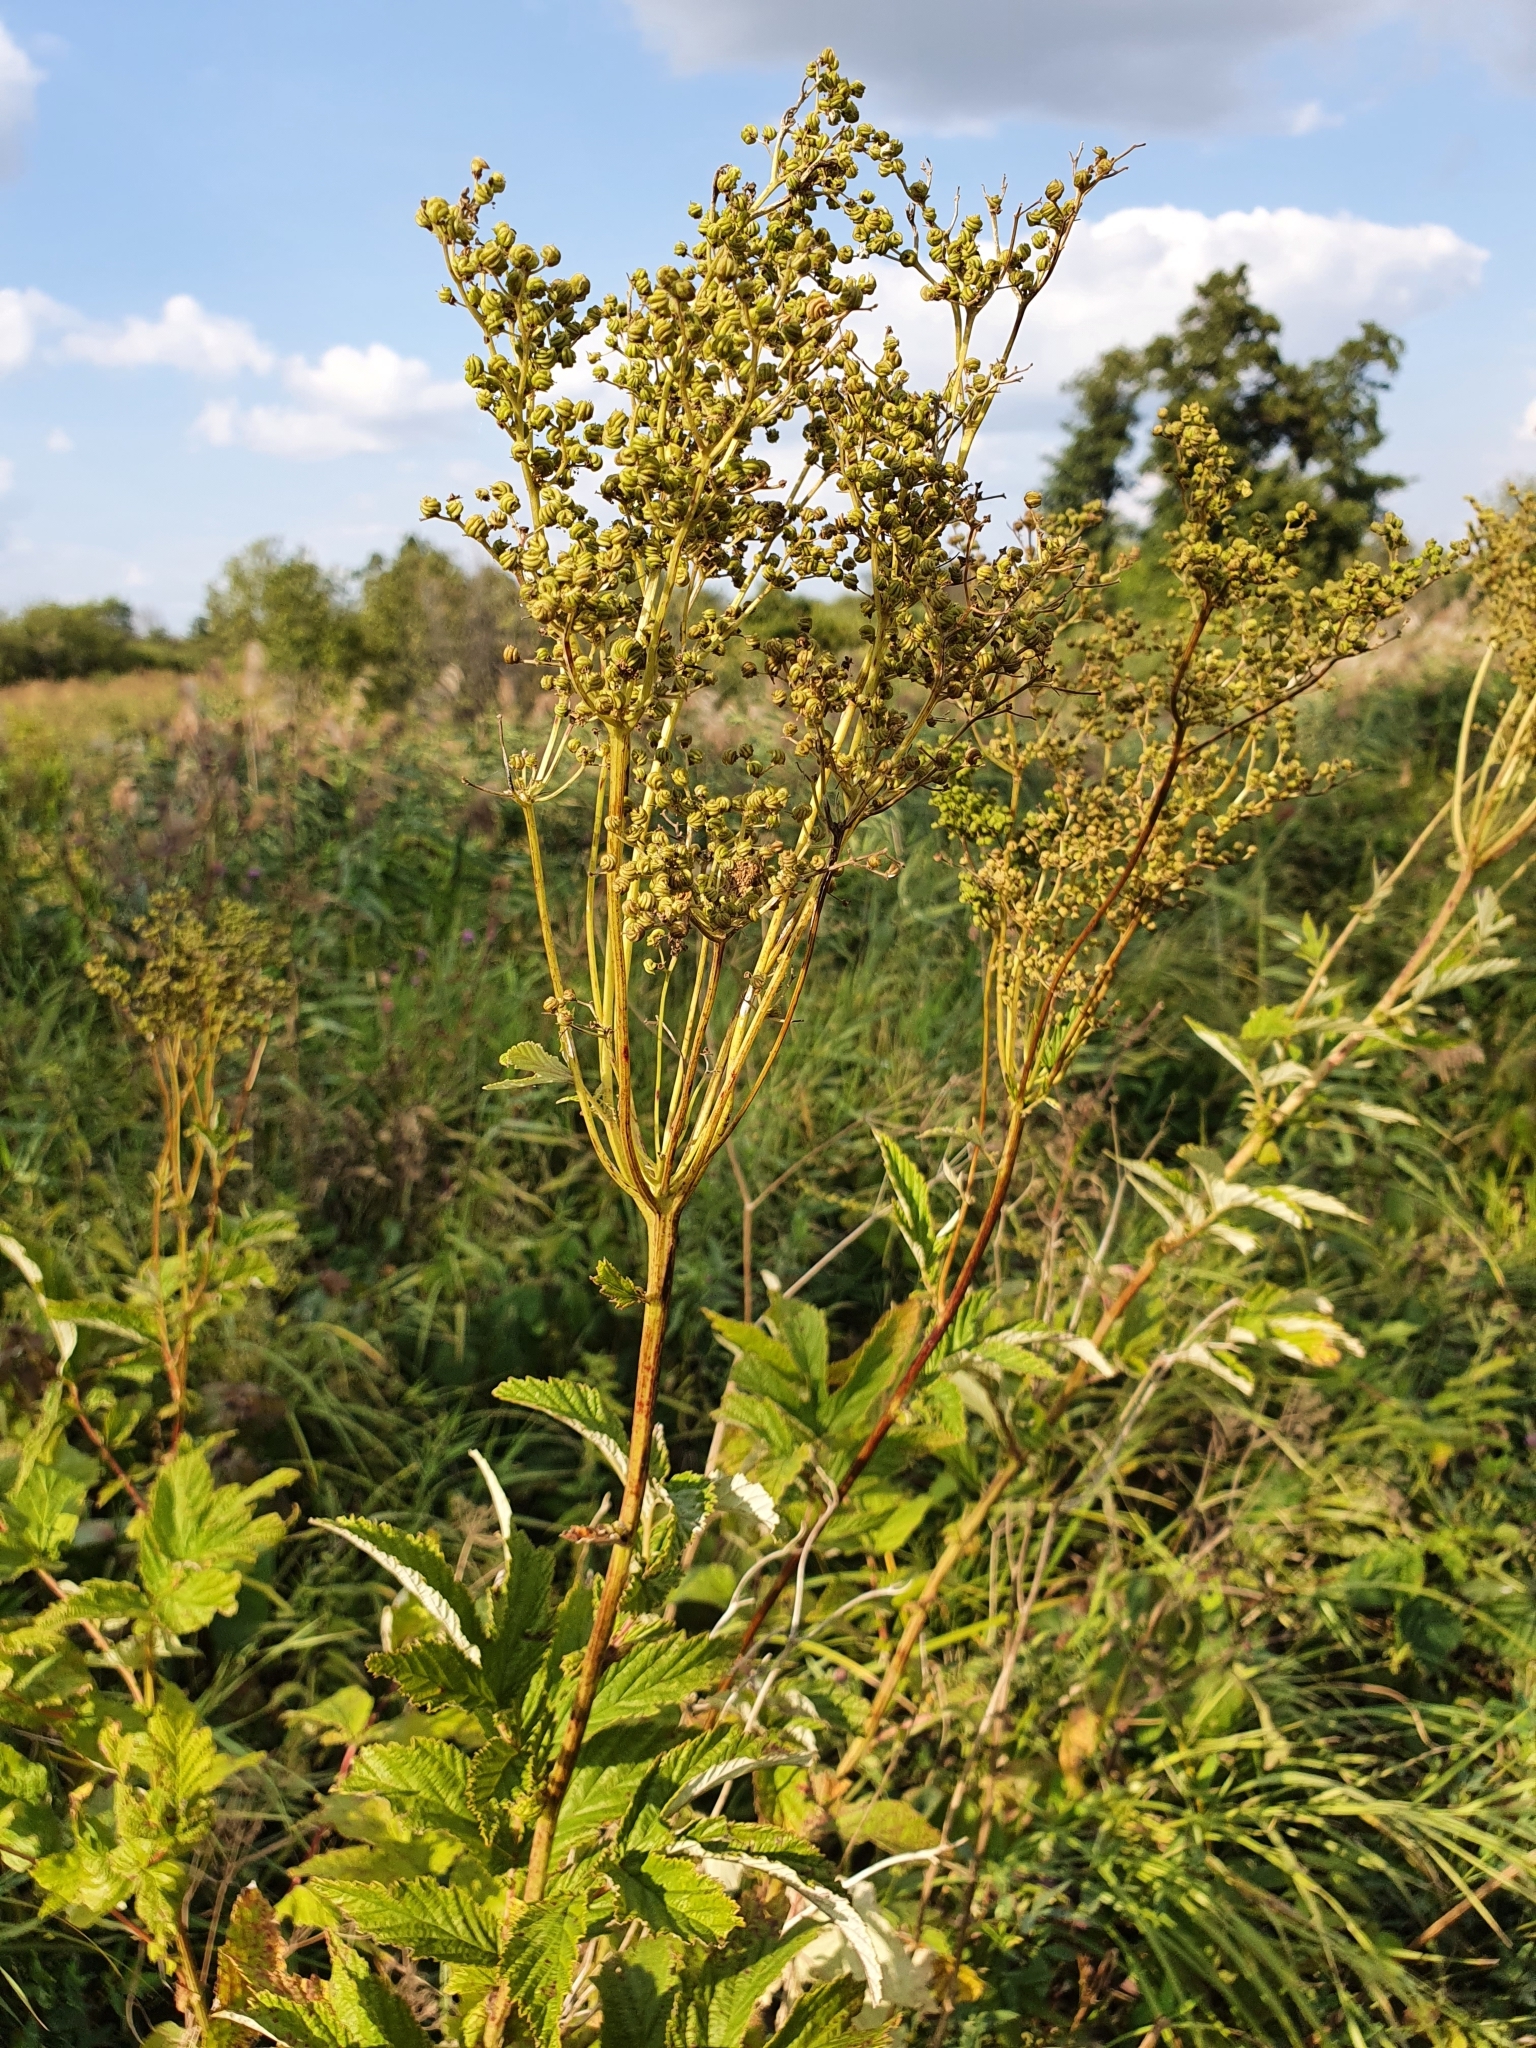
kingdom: Plantae
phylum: Tracheophyta
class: Magnoliopsida
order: Rosales
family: Rosaceae
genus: Filipendula
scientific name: Filipendula ulmaria
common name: Meadowsweet
